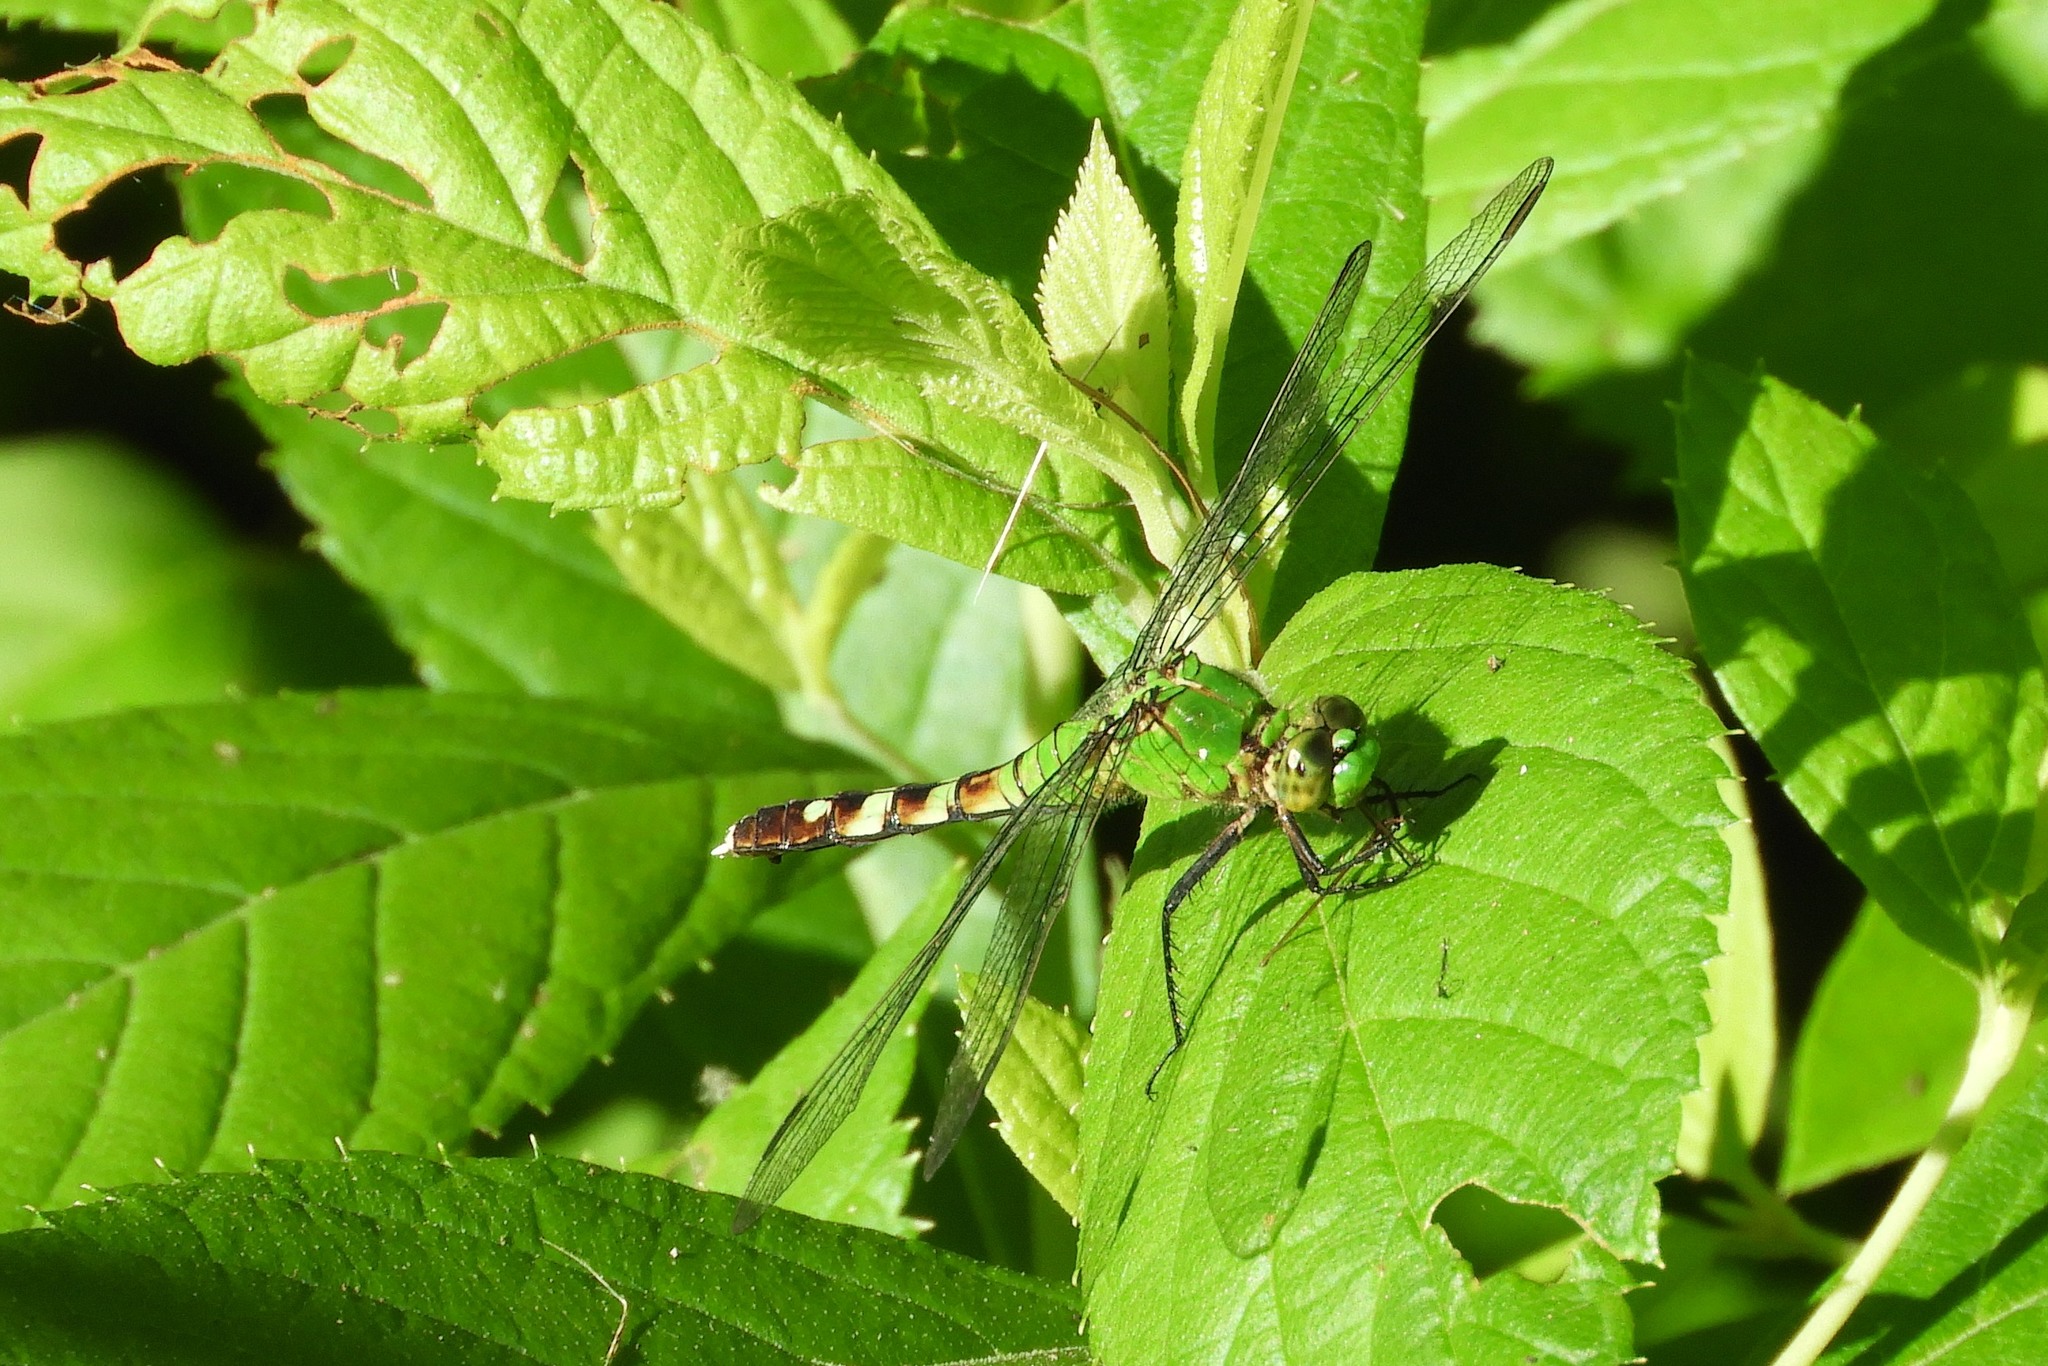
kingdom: Animalia
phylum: Arthropoda
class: Insecta
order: Odonata
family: Libellulidae
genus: Erythemis
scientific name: Erythemis simplicicollis
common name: Eastern pondhawk
